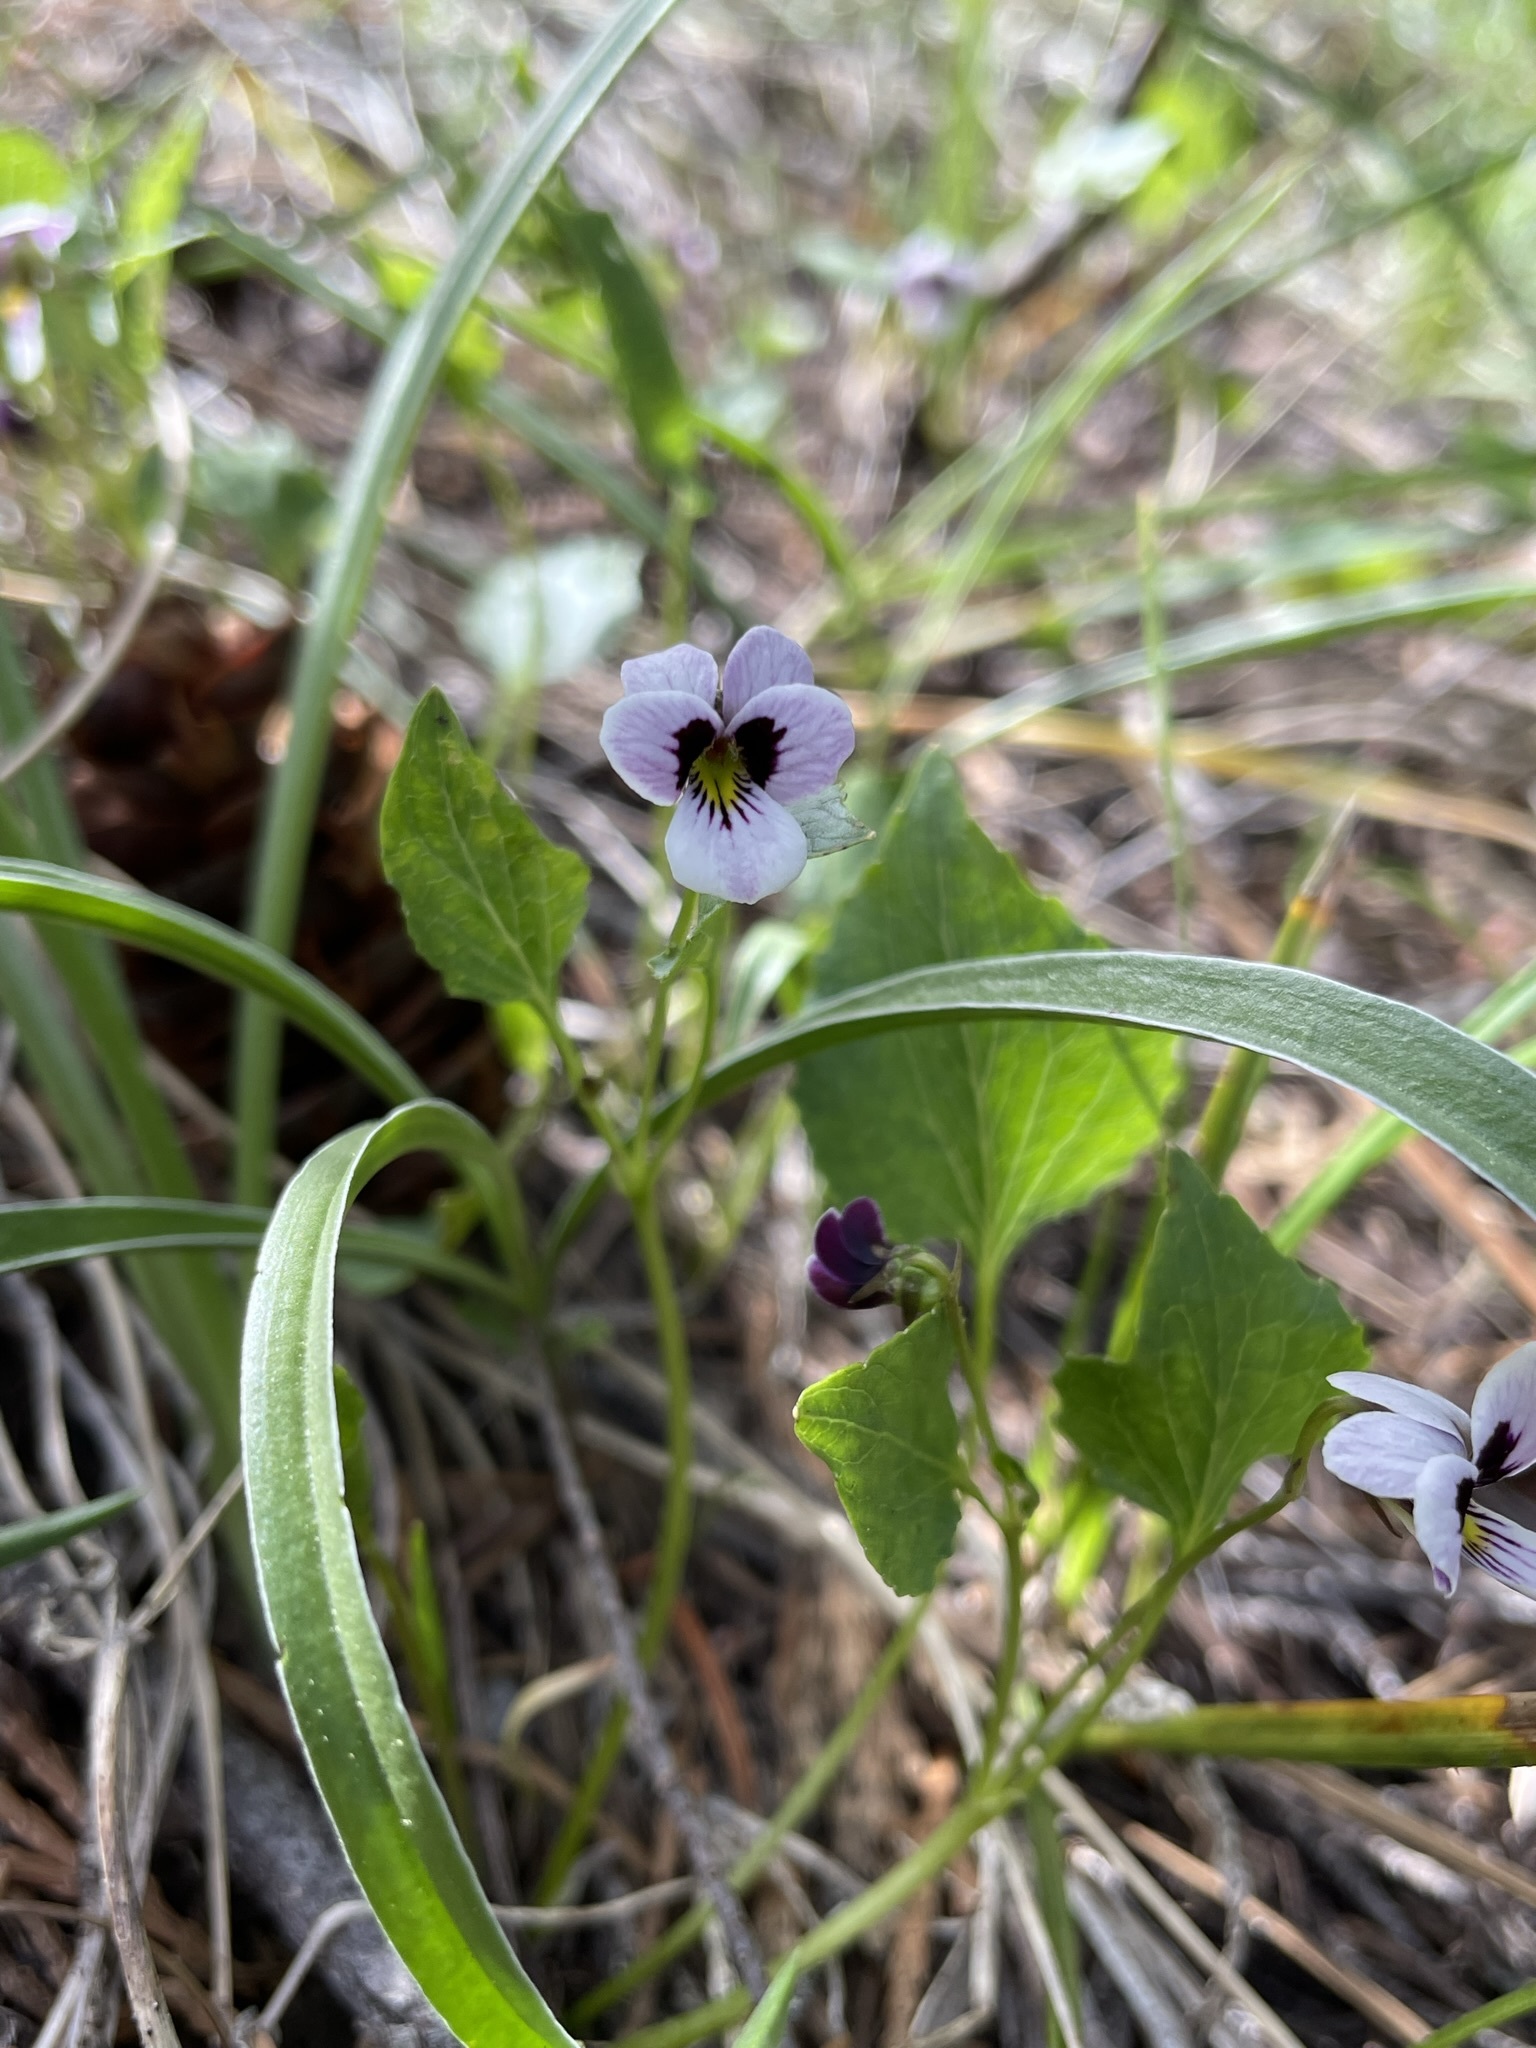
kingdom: Plantae
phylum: Tracheophyta
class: Magnoliopsida
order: Malpighiales
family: Violaceae
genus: Viola
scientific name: Viola cuneata
